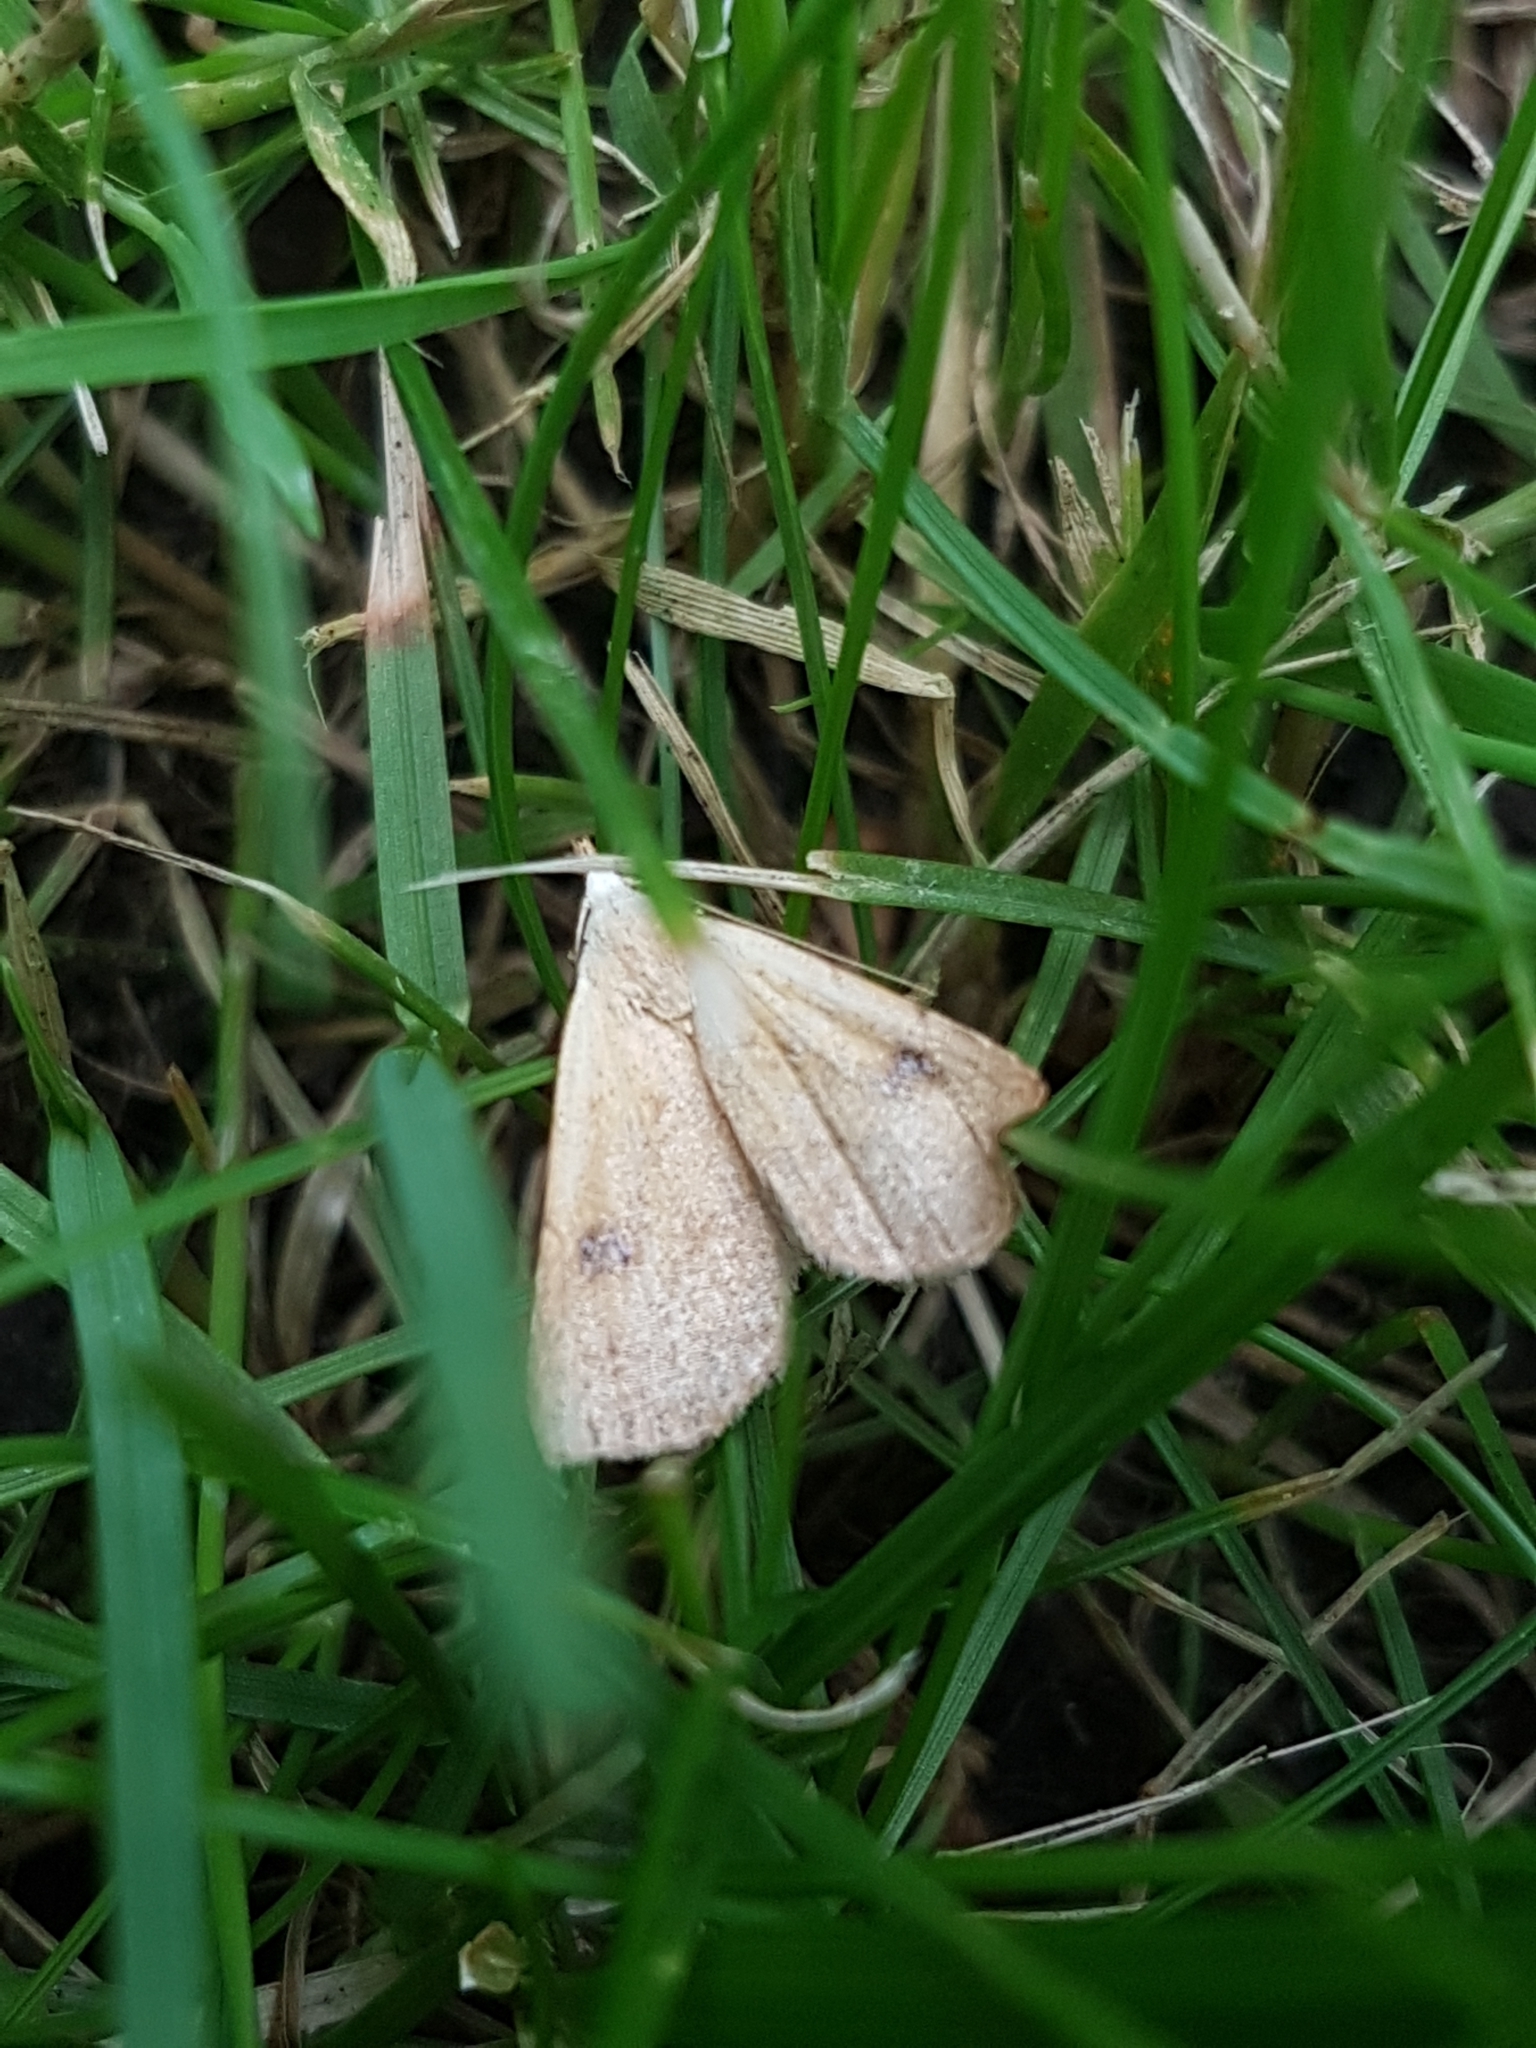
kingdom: Animalia
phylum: Arthropoda
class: Insecta
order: Lepidoptera
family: Erebidae
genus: Rivula
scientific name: Rivula sericealis
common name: Straw dot
